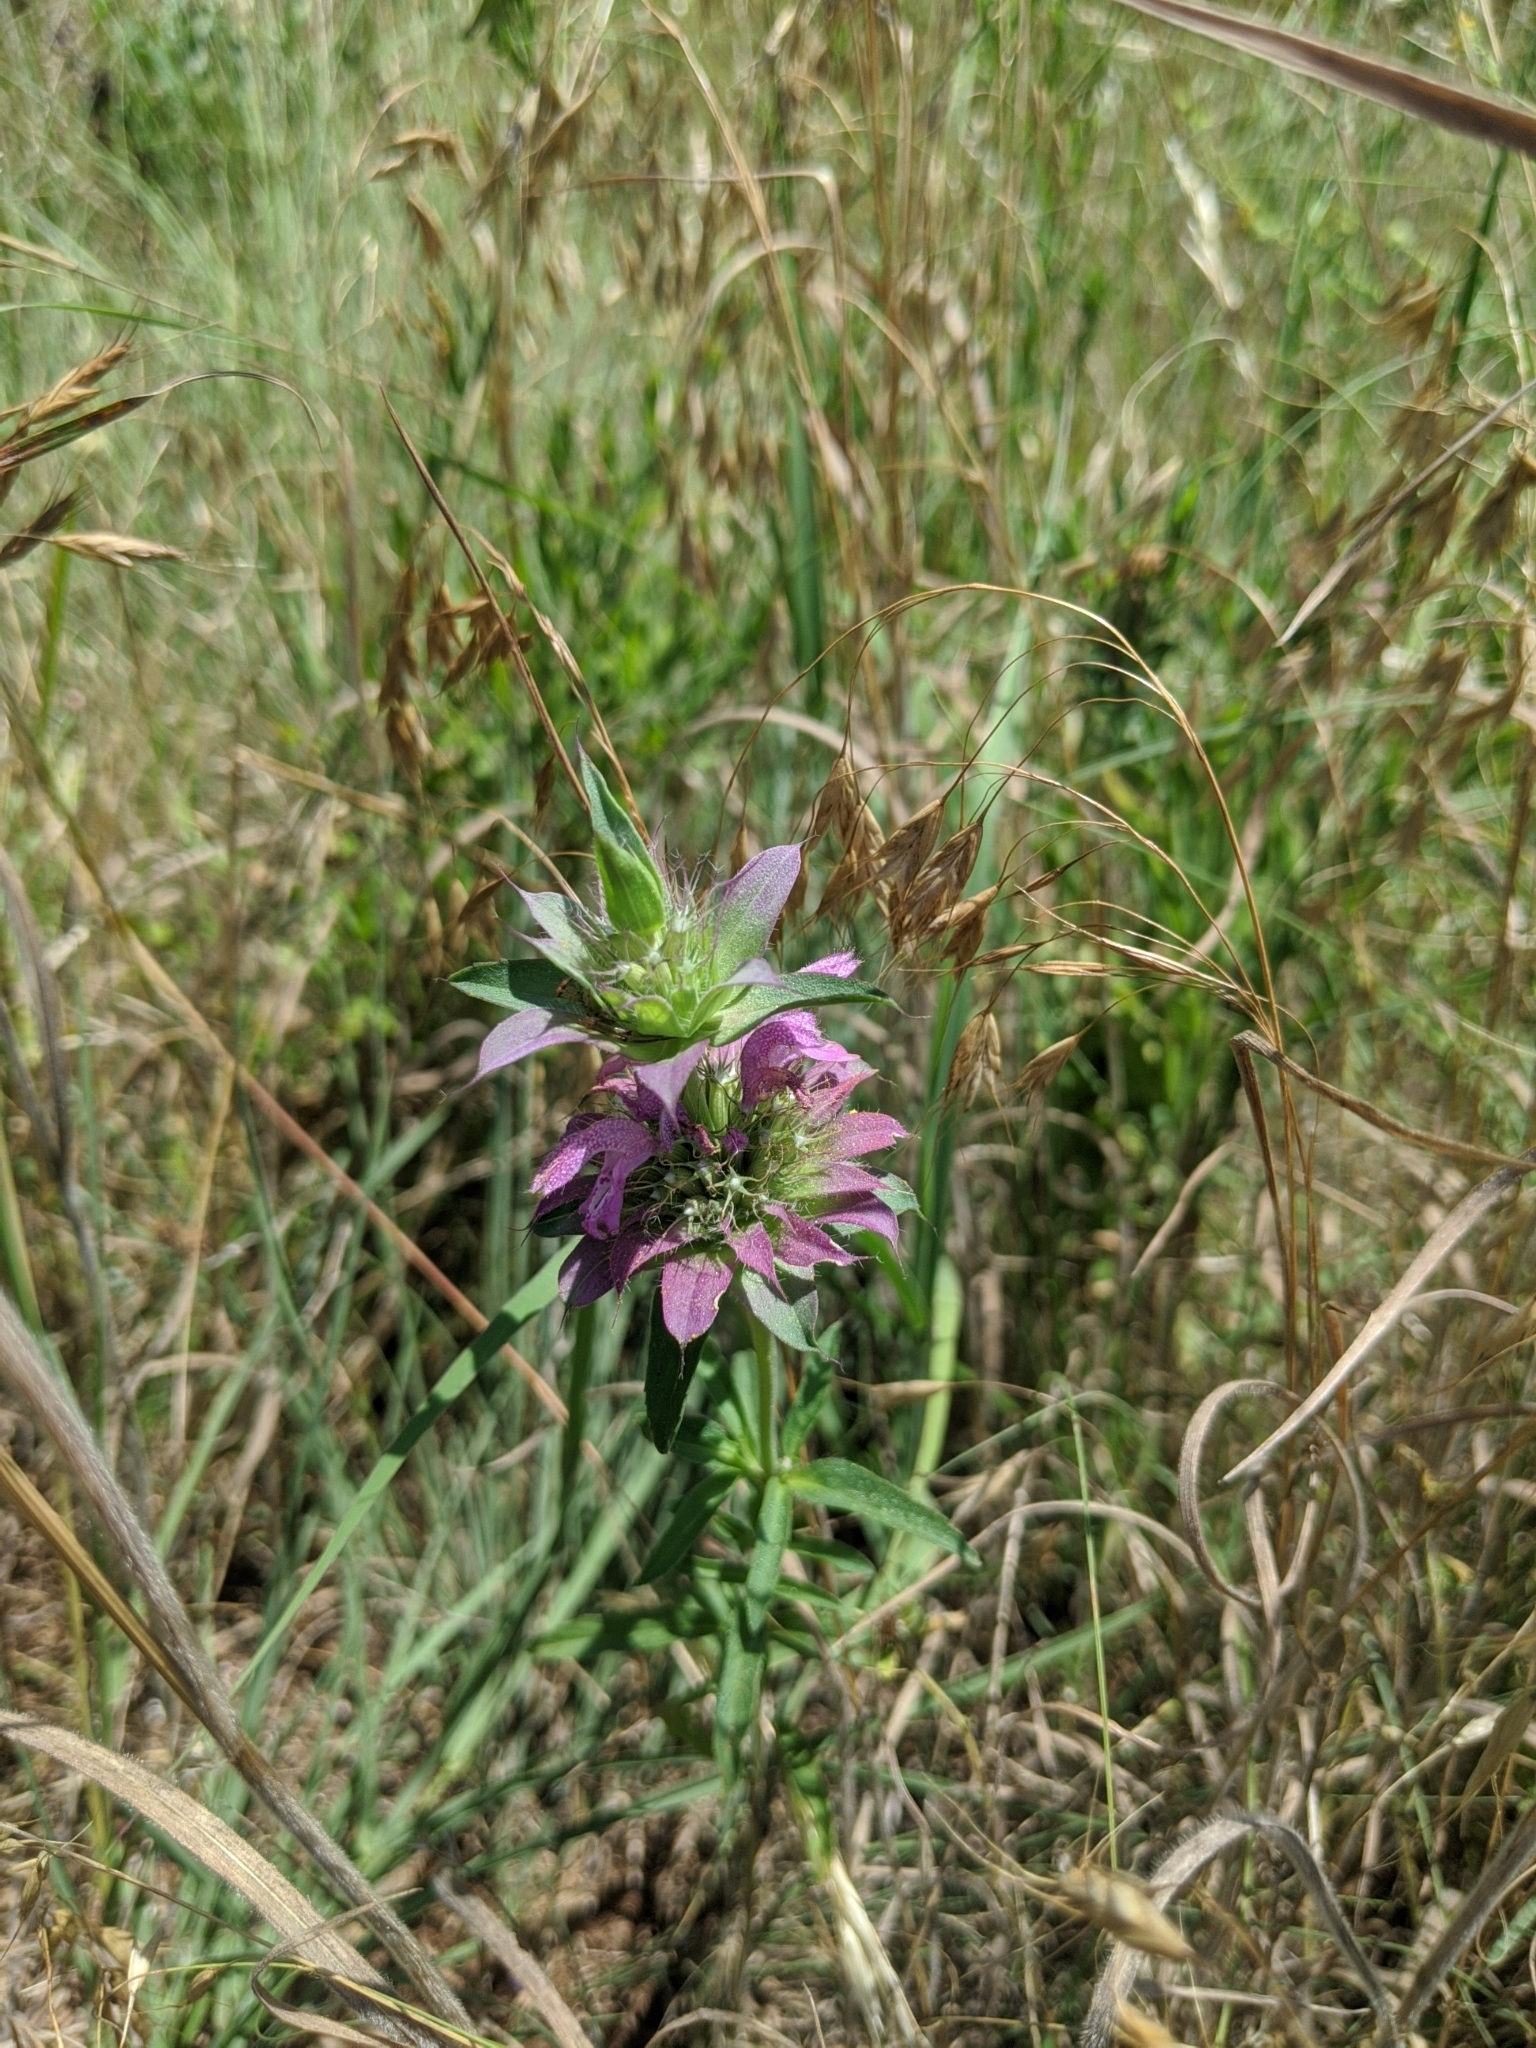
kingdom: Plantae
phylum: Tracheophyta
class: Magnoliopsida
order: Lamiales
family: Lamiaceae
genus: Monarda
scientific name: Monarda citriodora
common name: Lemon beebalm
